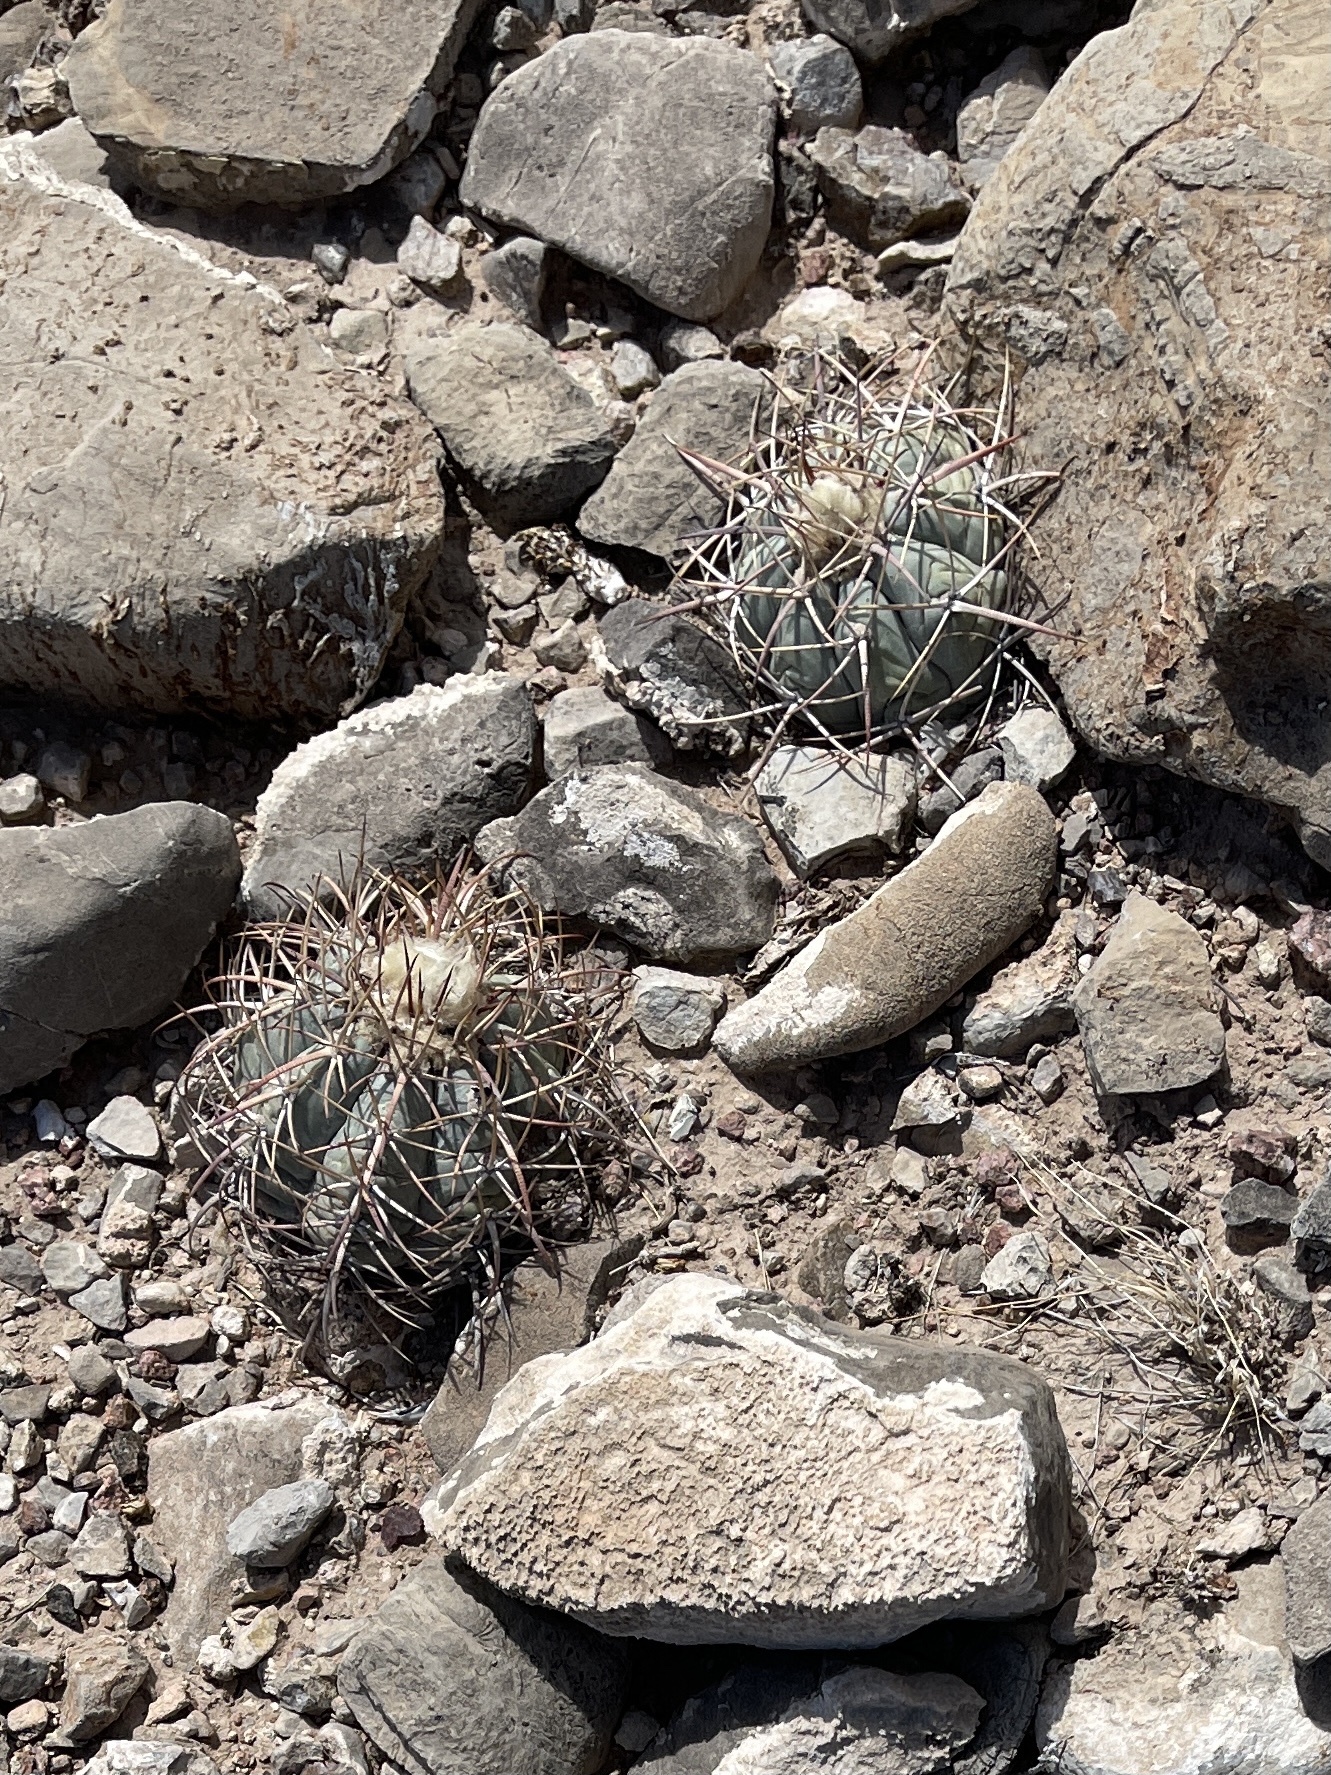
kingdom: Plantae
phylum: Tracheophyta
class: Magnoliopsida
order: Caryophyllales
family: Cactaceae
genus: Echinocactus
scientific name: Echinocactus horizonthalonius
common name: Devilshead
